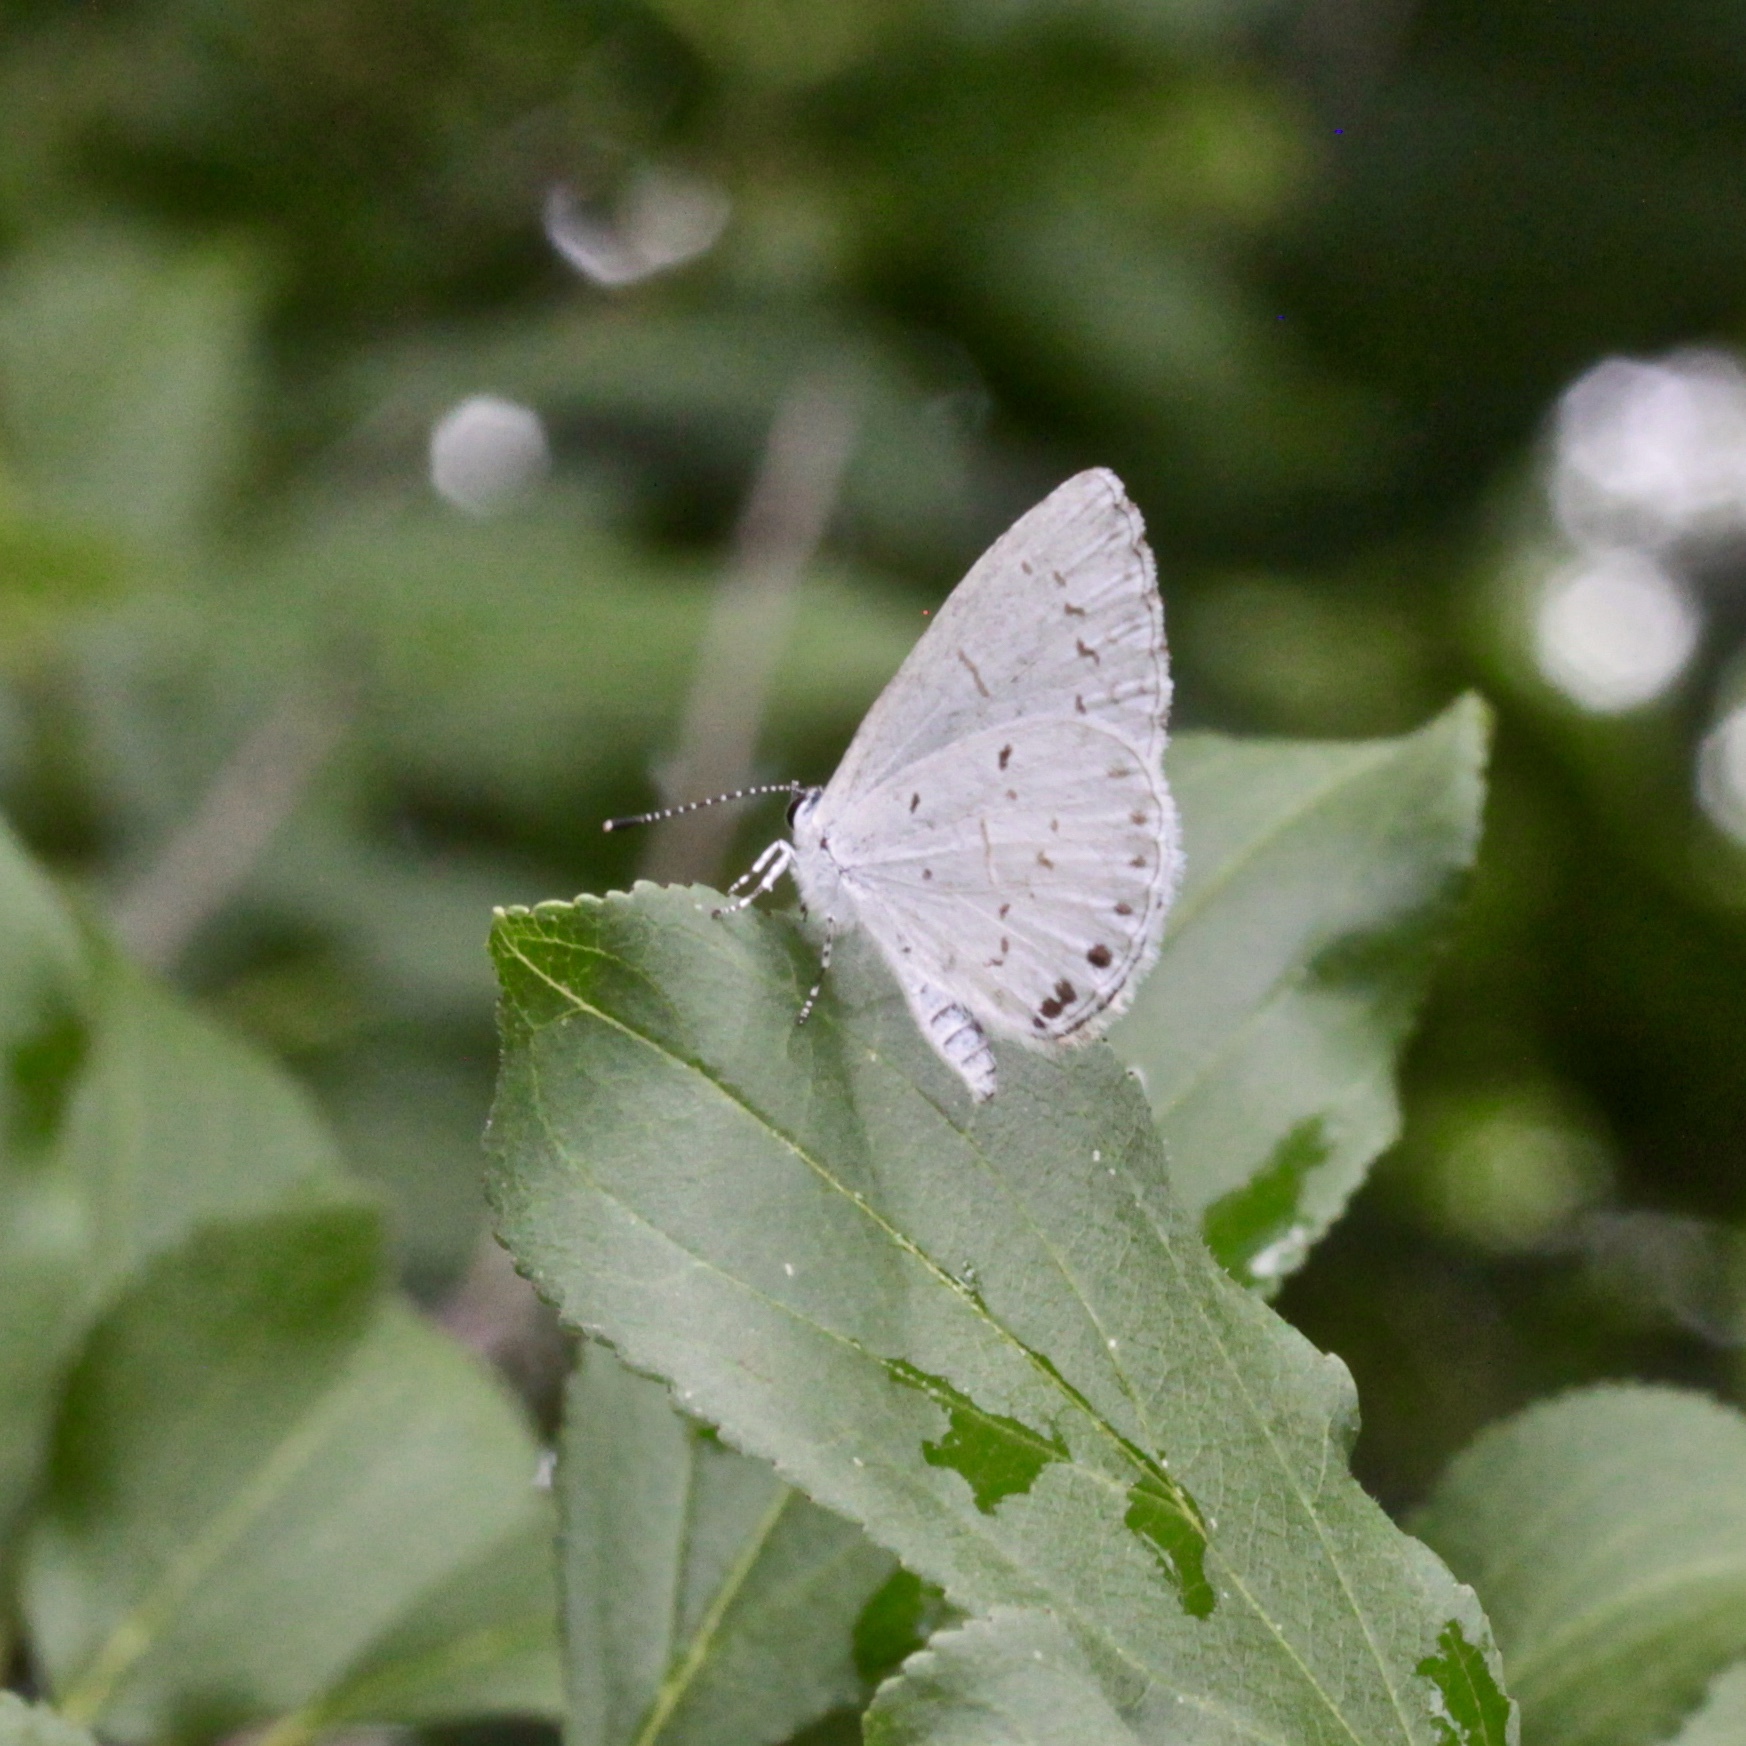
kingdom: Animalia
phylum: Arthropoda
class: Insecta
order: Lepidoptera
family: Lycaenidae
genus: Cyaniris
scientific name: Cyaniris neglecta
